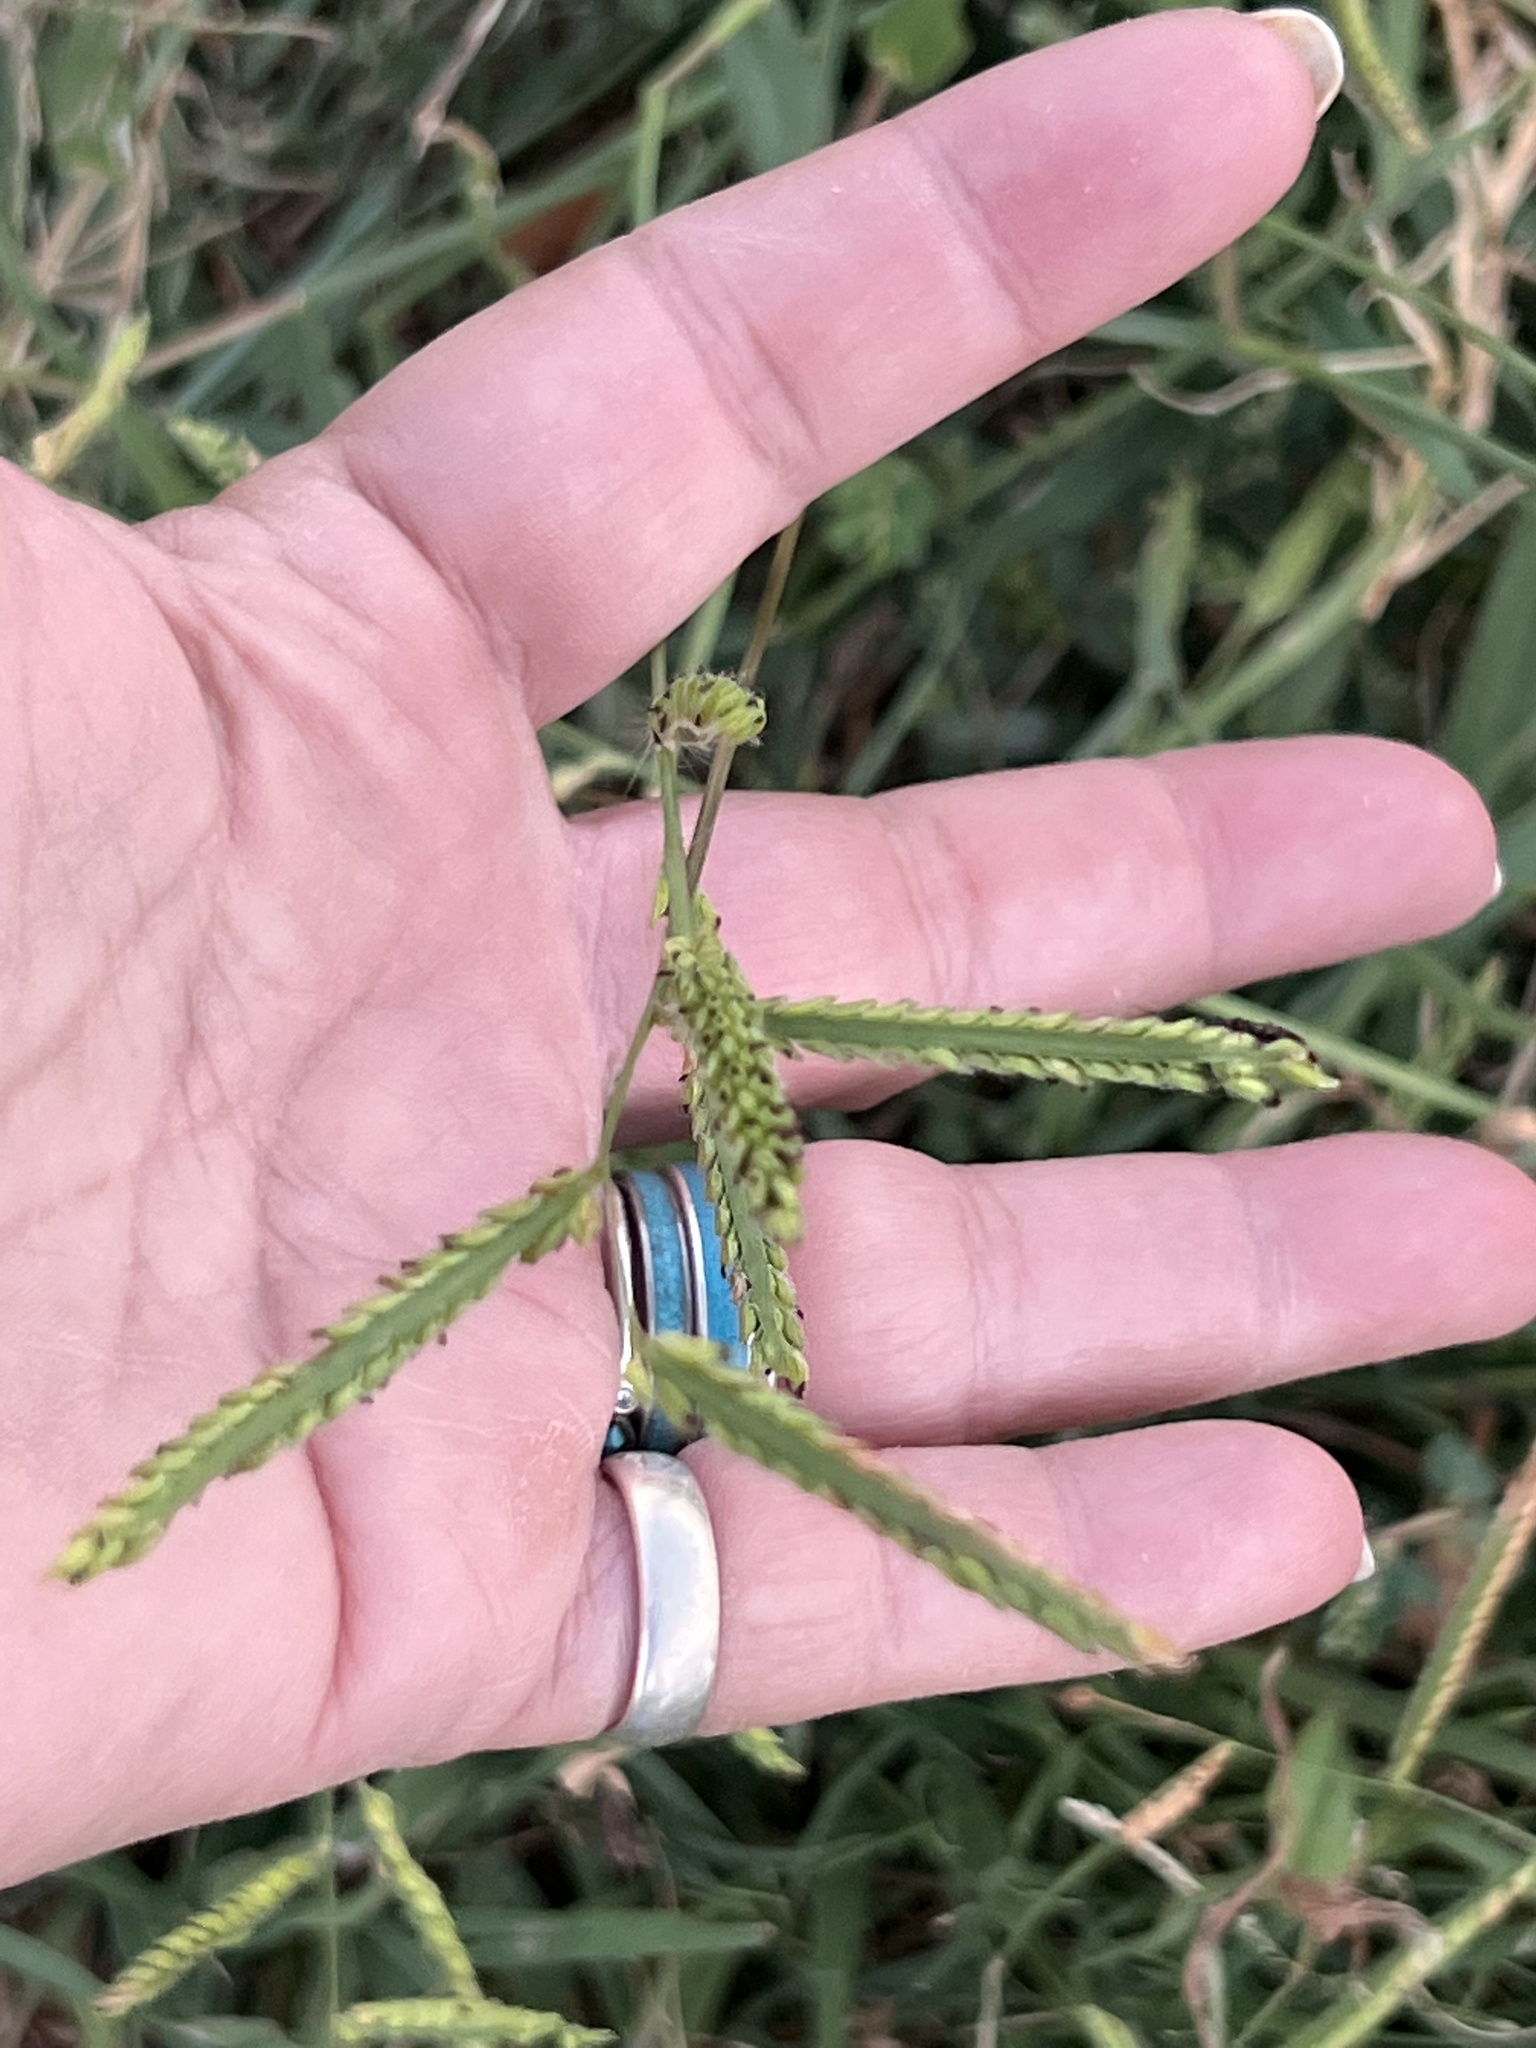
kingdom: Plantae
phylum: Tracheophyta
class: Liliopsida
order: Poales
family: Poaceae
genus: Paspalum
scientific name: Paspalum dilatatum
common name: Dallisgrass
